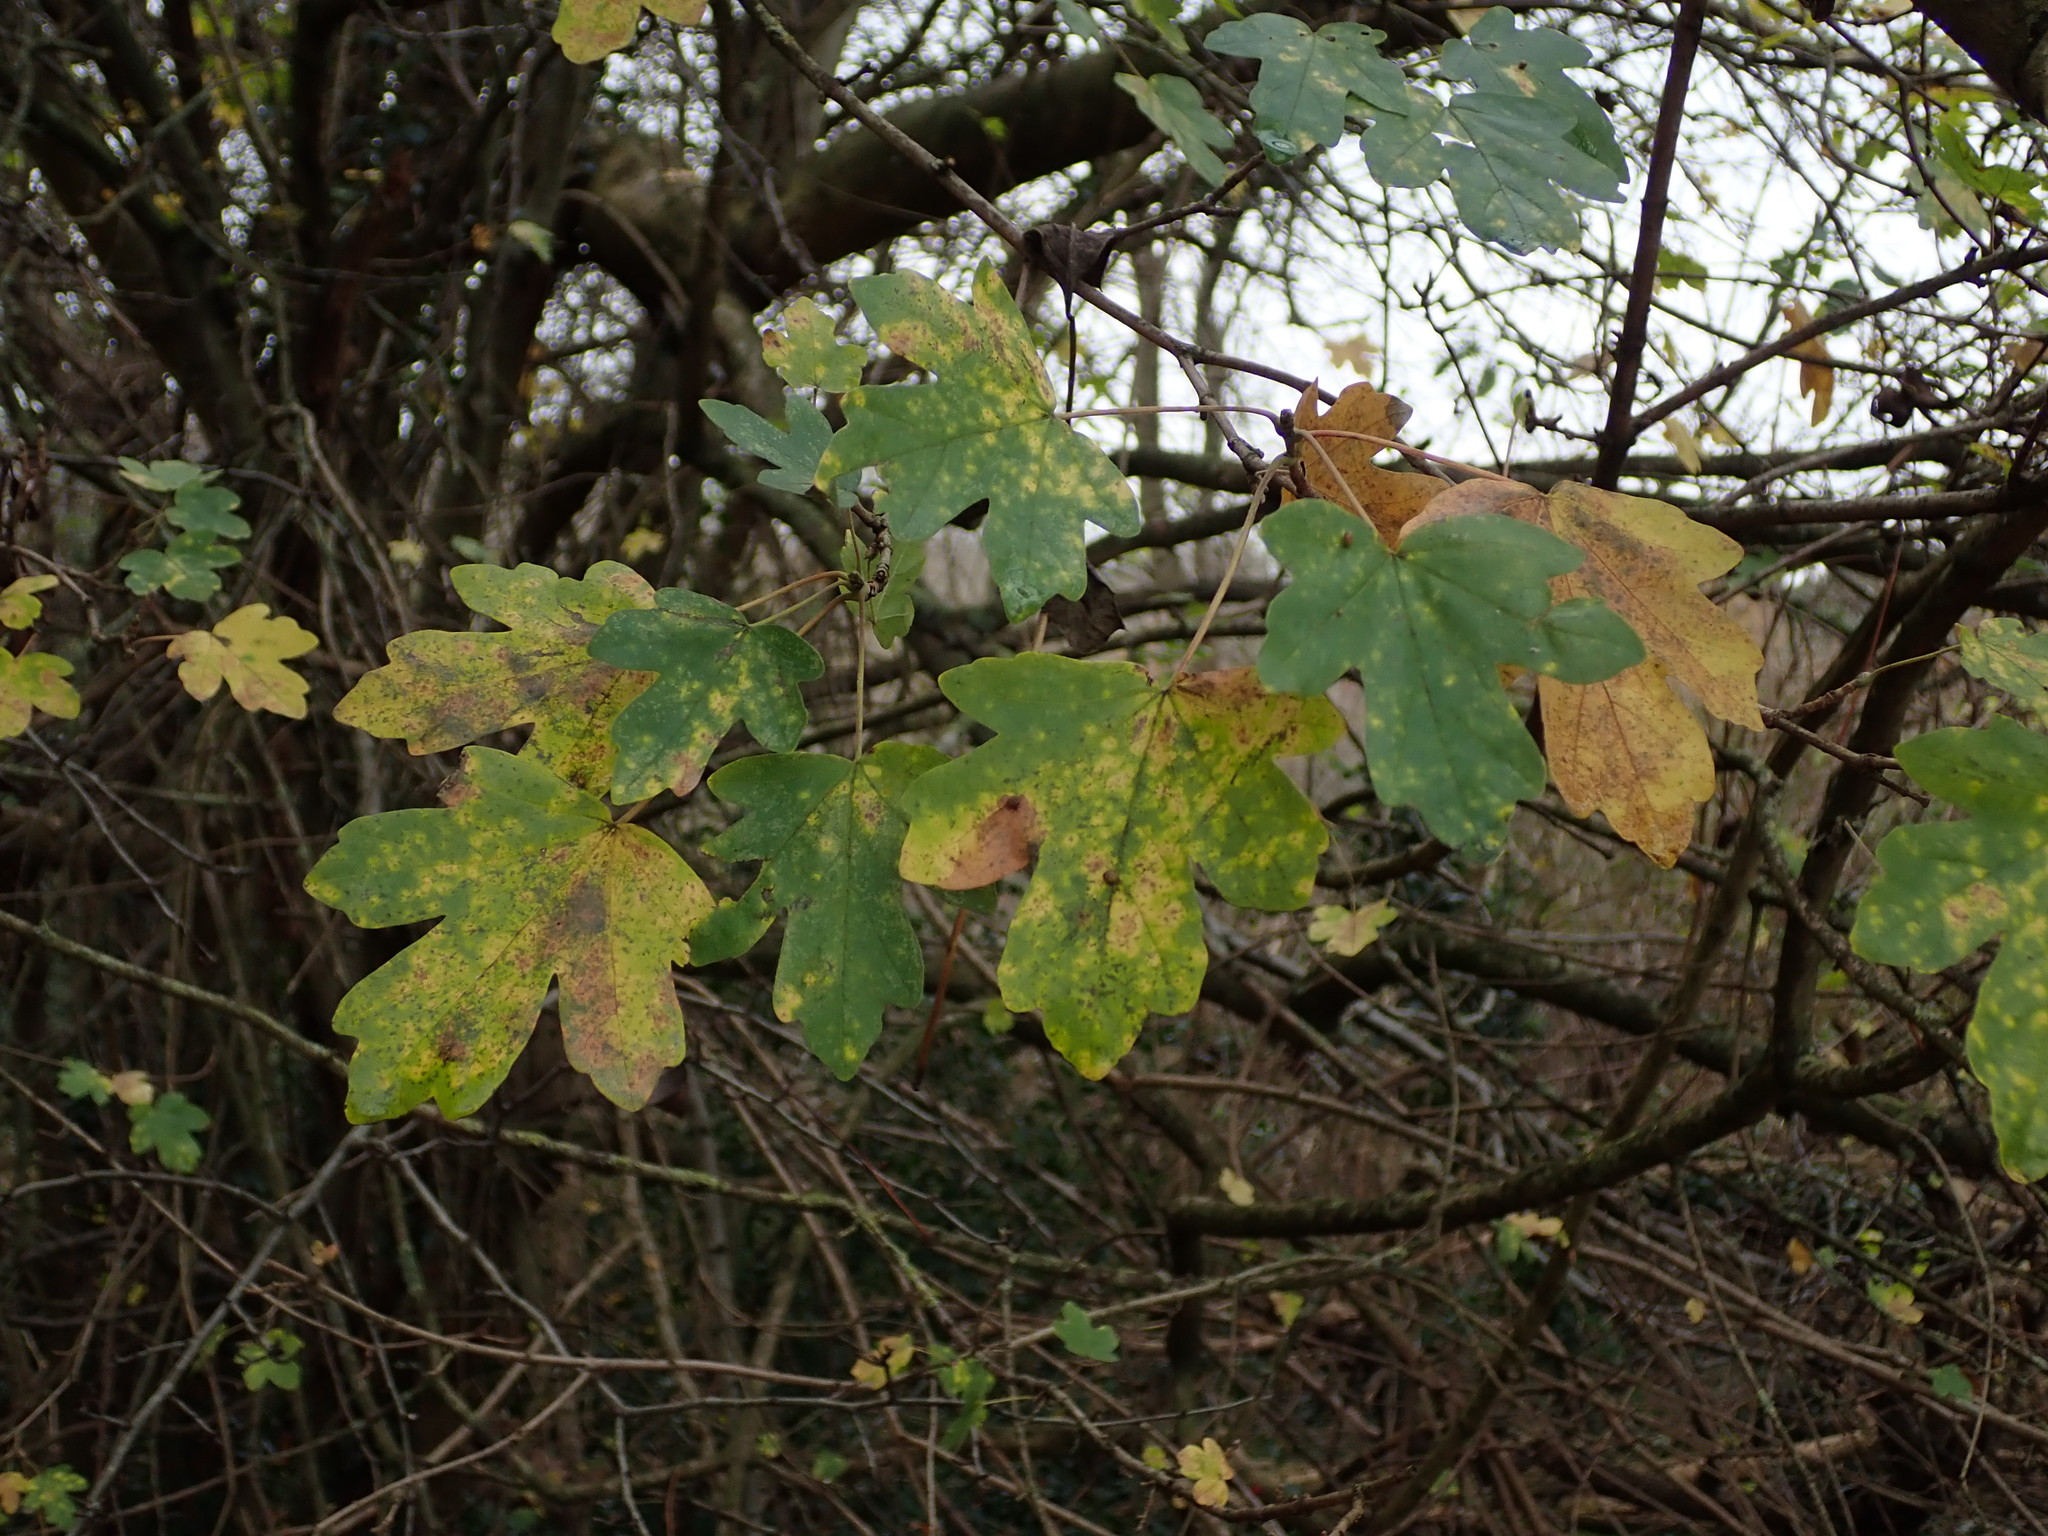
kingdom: Plantae
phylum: Tracheophyta
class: Magnoliopsida
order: Sapindales
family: Sapindaceae
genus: Acer
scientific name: Acer campestre
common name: Field maple
